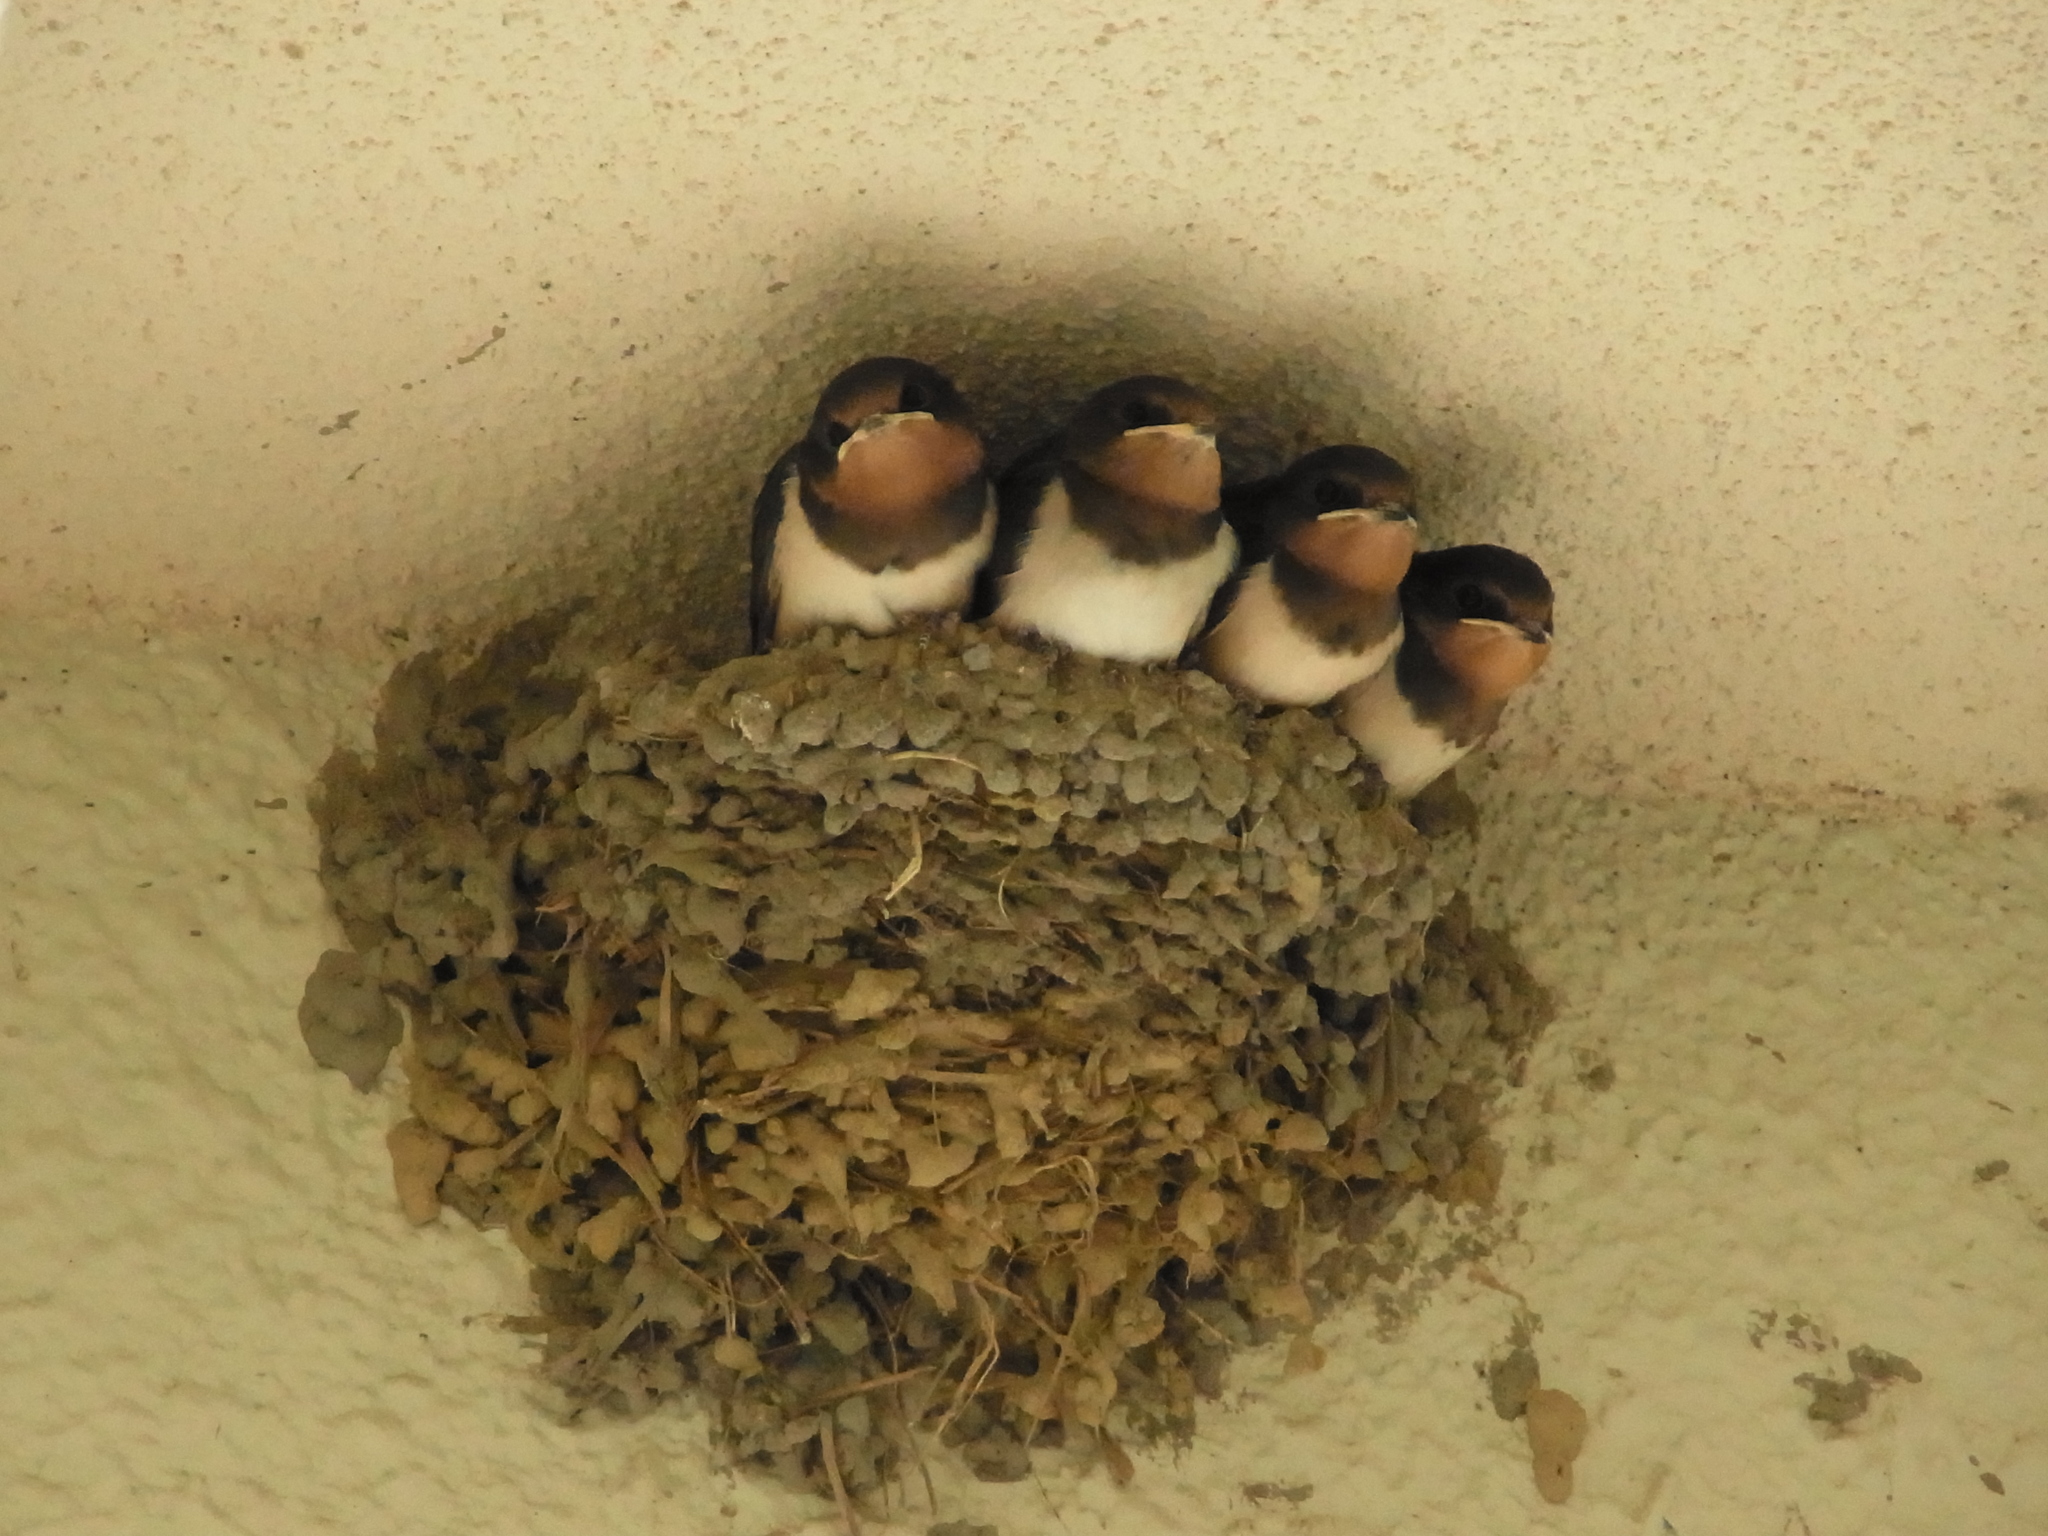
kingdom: Animalia
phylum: Chordata
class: Aves
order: Passeriformes
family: Hirundinidae
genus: Hirundo
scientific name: Hirundo rustica
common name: Barn swallow
